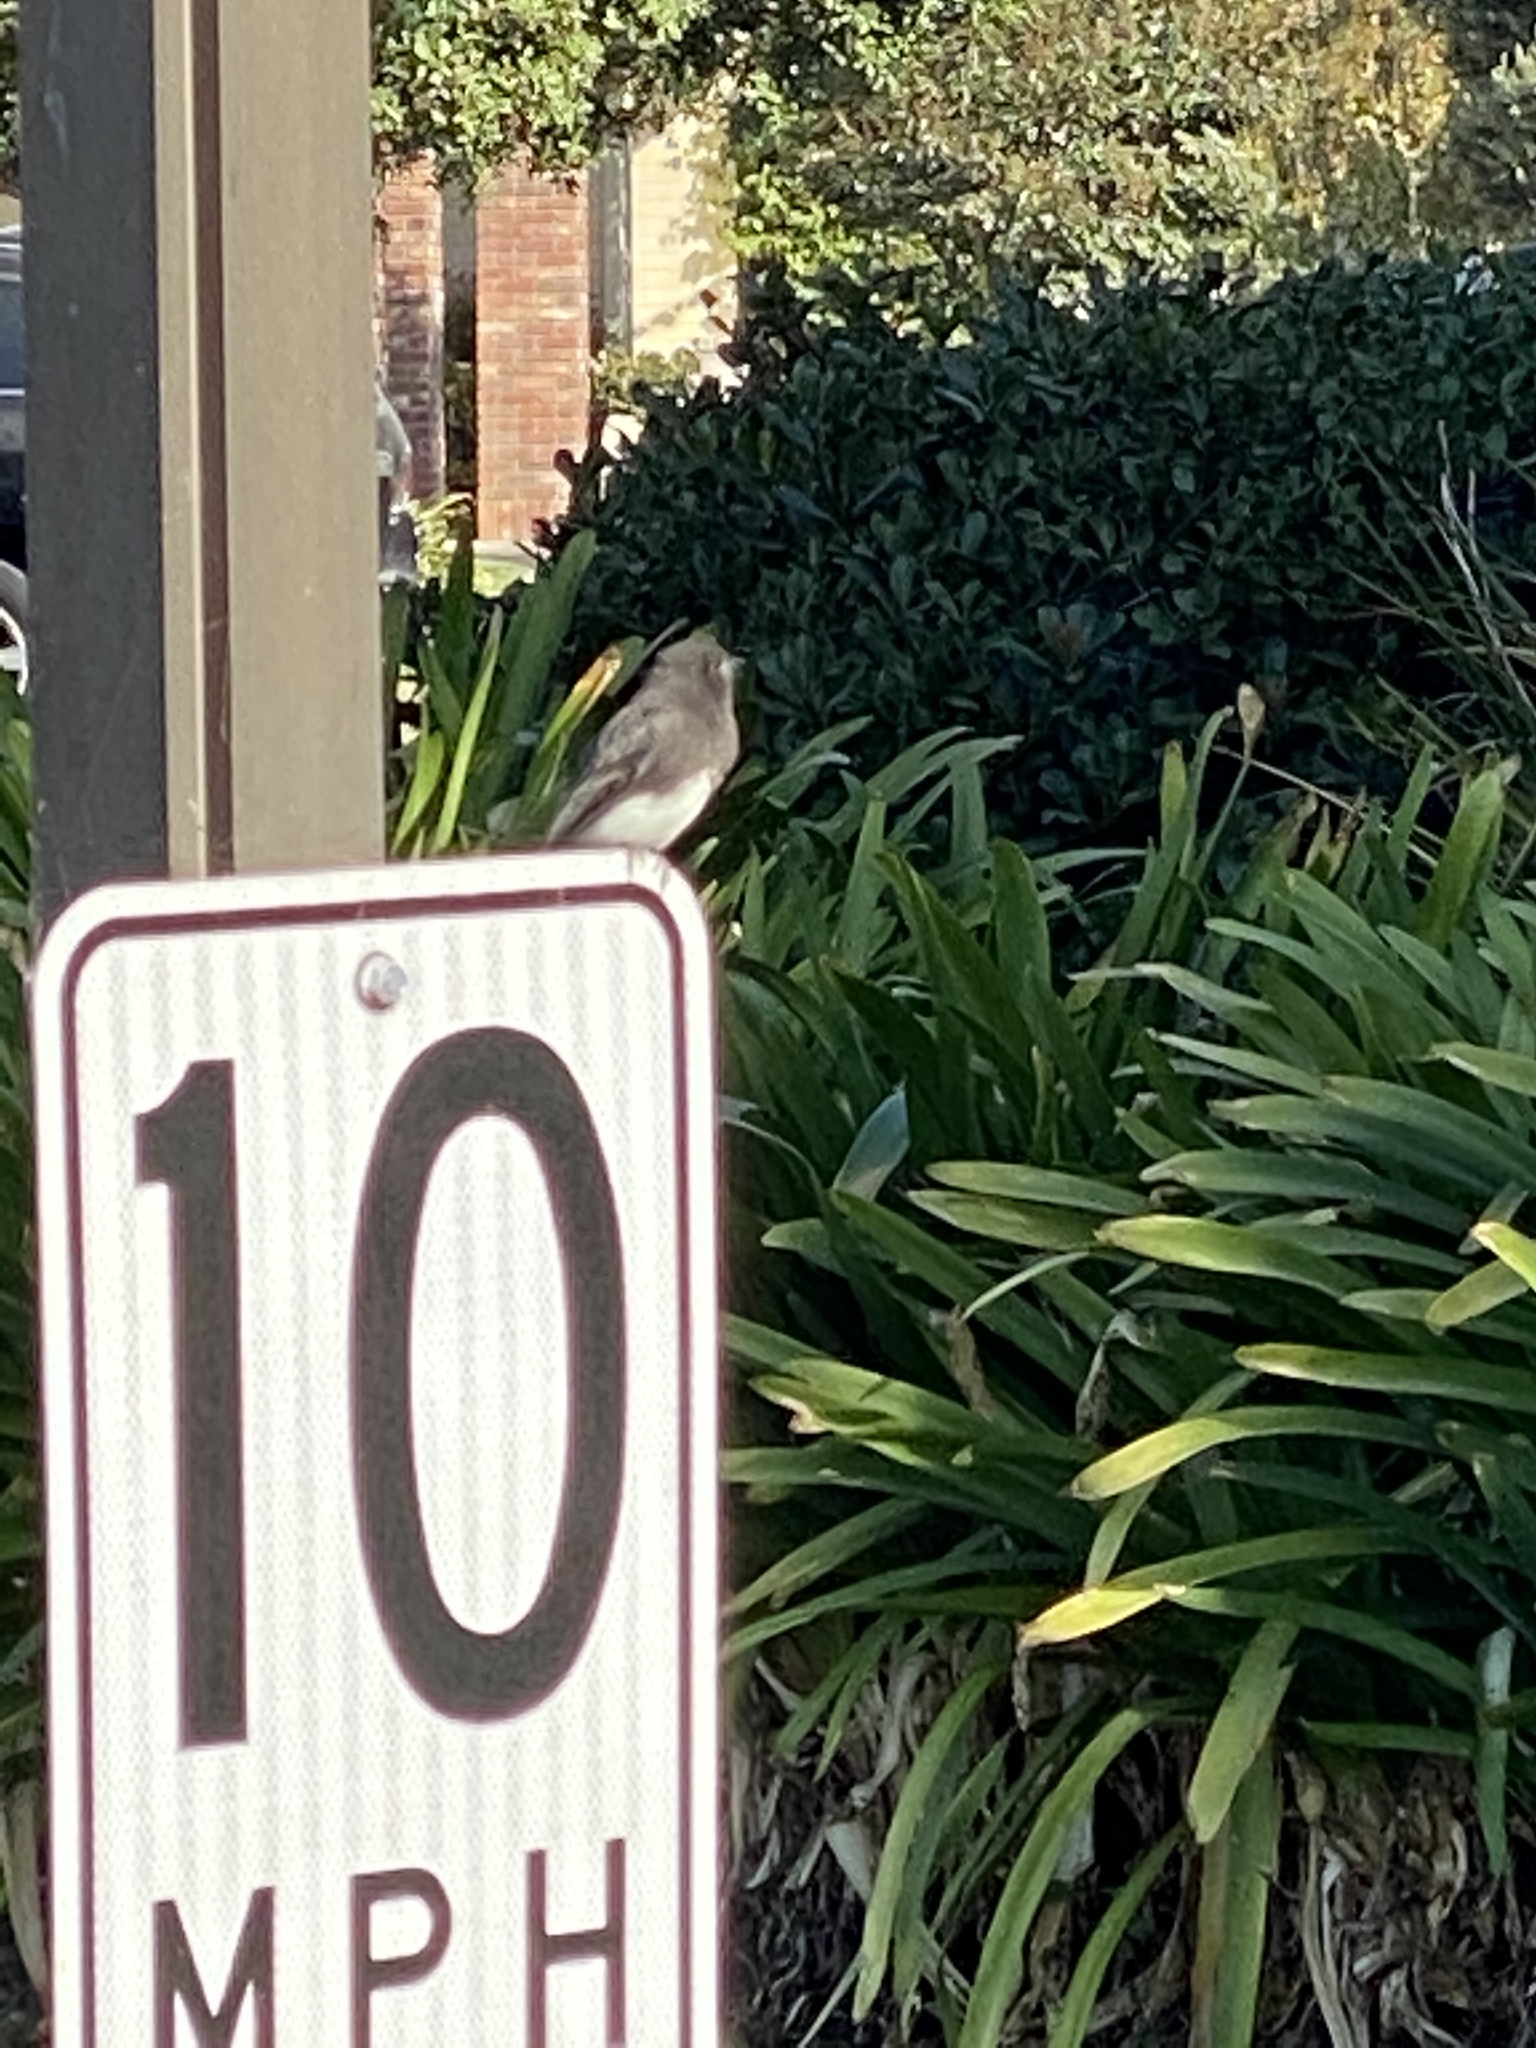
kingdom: Animalia
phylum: Chordata
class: Aves
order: Passeriformes
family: Tyrannidae
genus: Sayornis
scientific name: Sayornis nigricans
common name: Black phoebe
